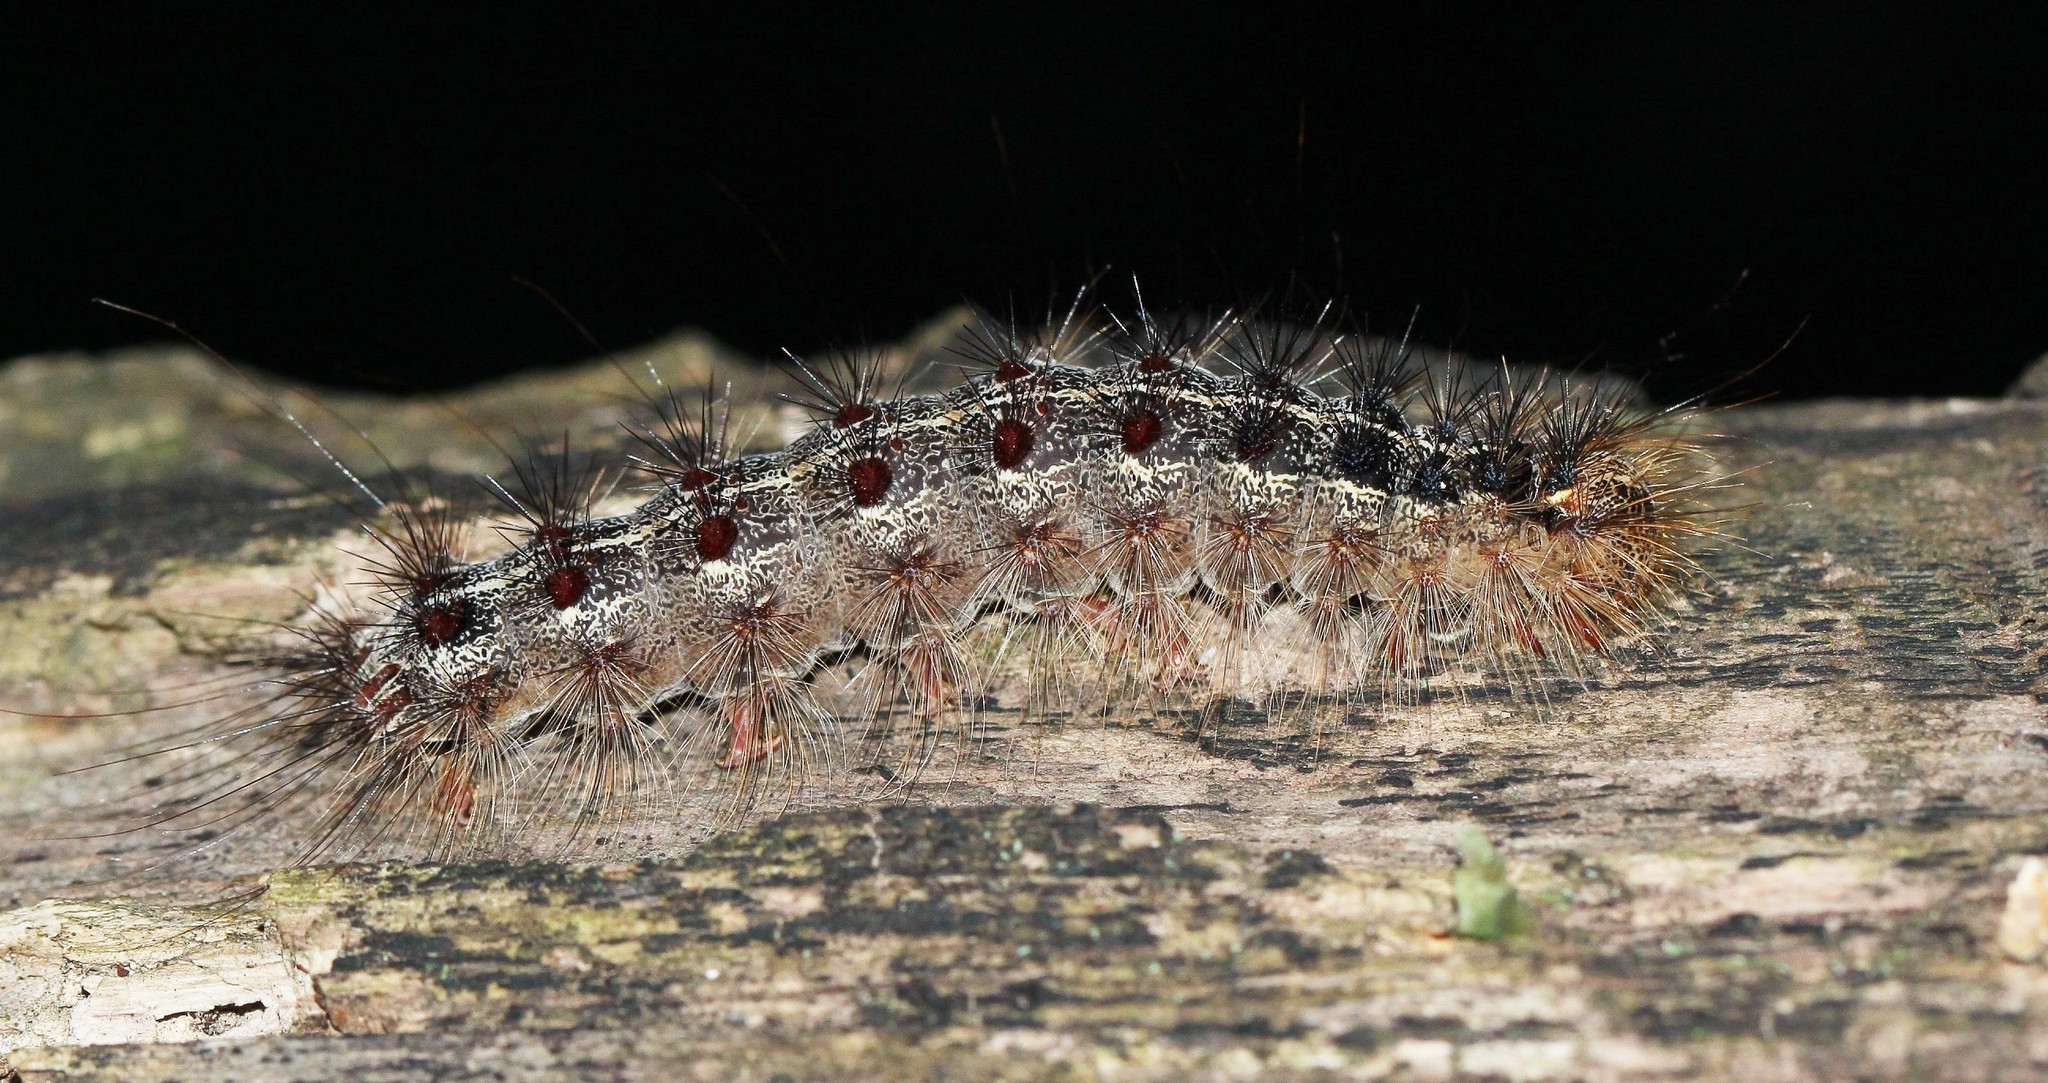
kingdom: Animalia
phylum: Arthropoda
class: Insecta
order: Lepidoptera
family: Erebidae
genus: Lymantria
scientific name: Lymantria dispar
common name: Gypsy moth
